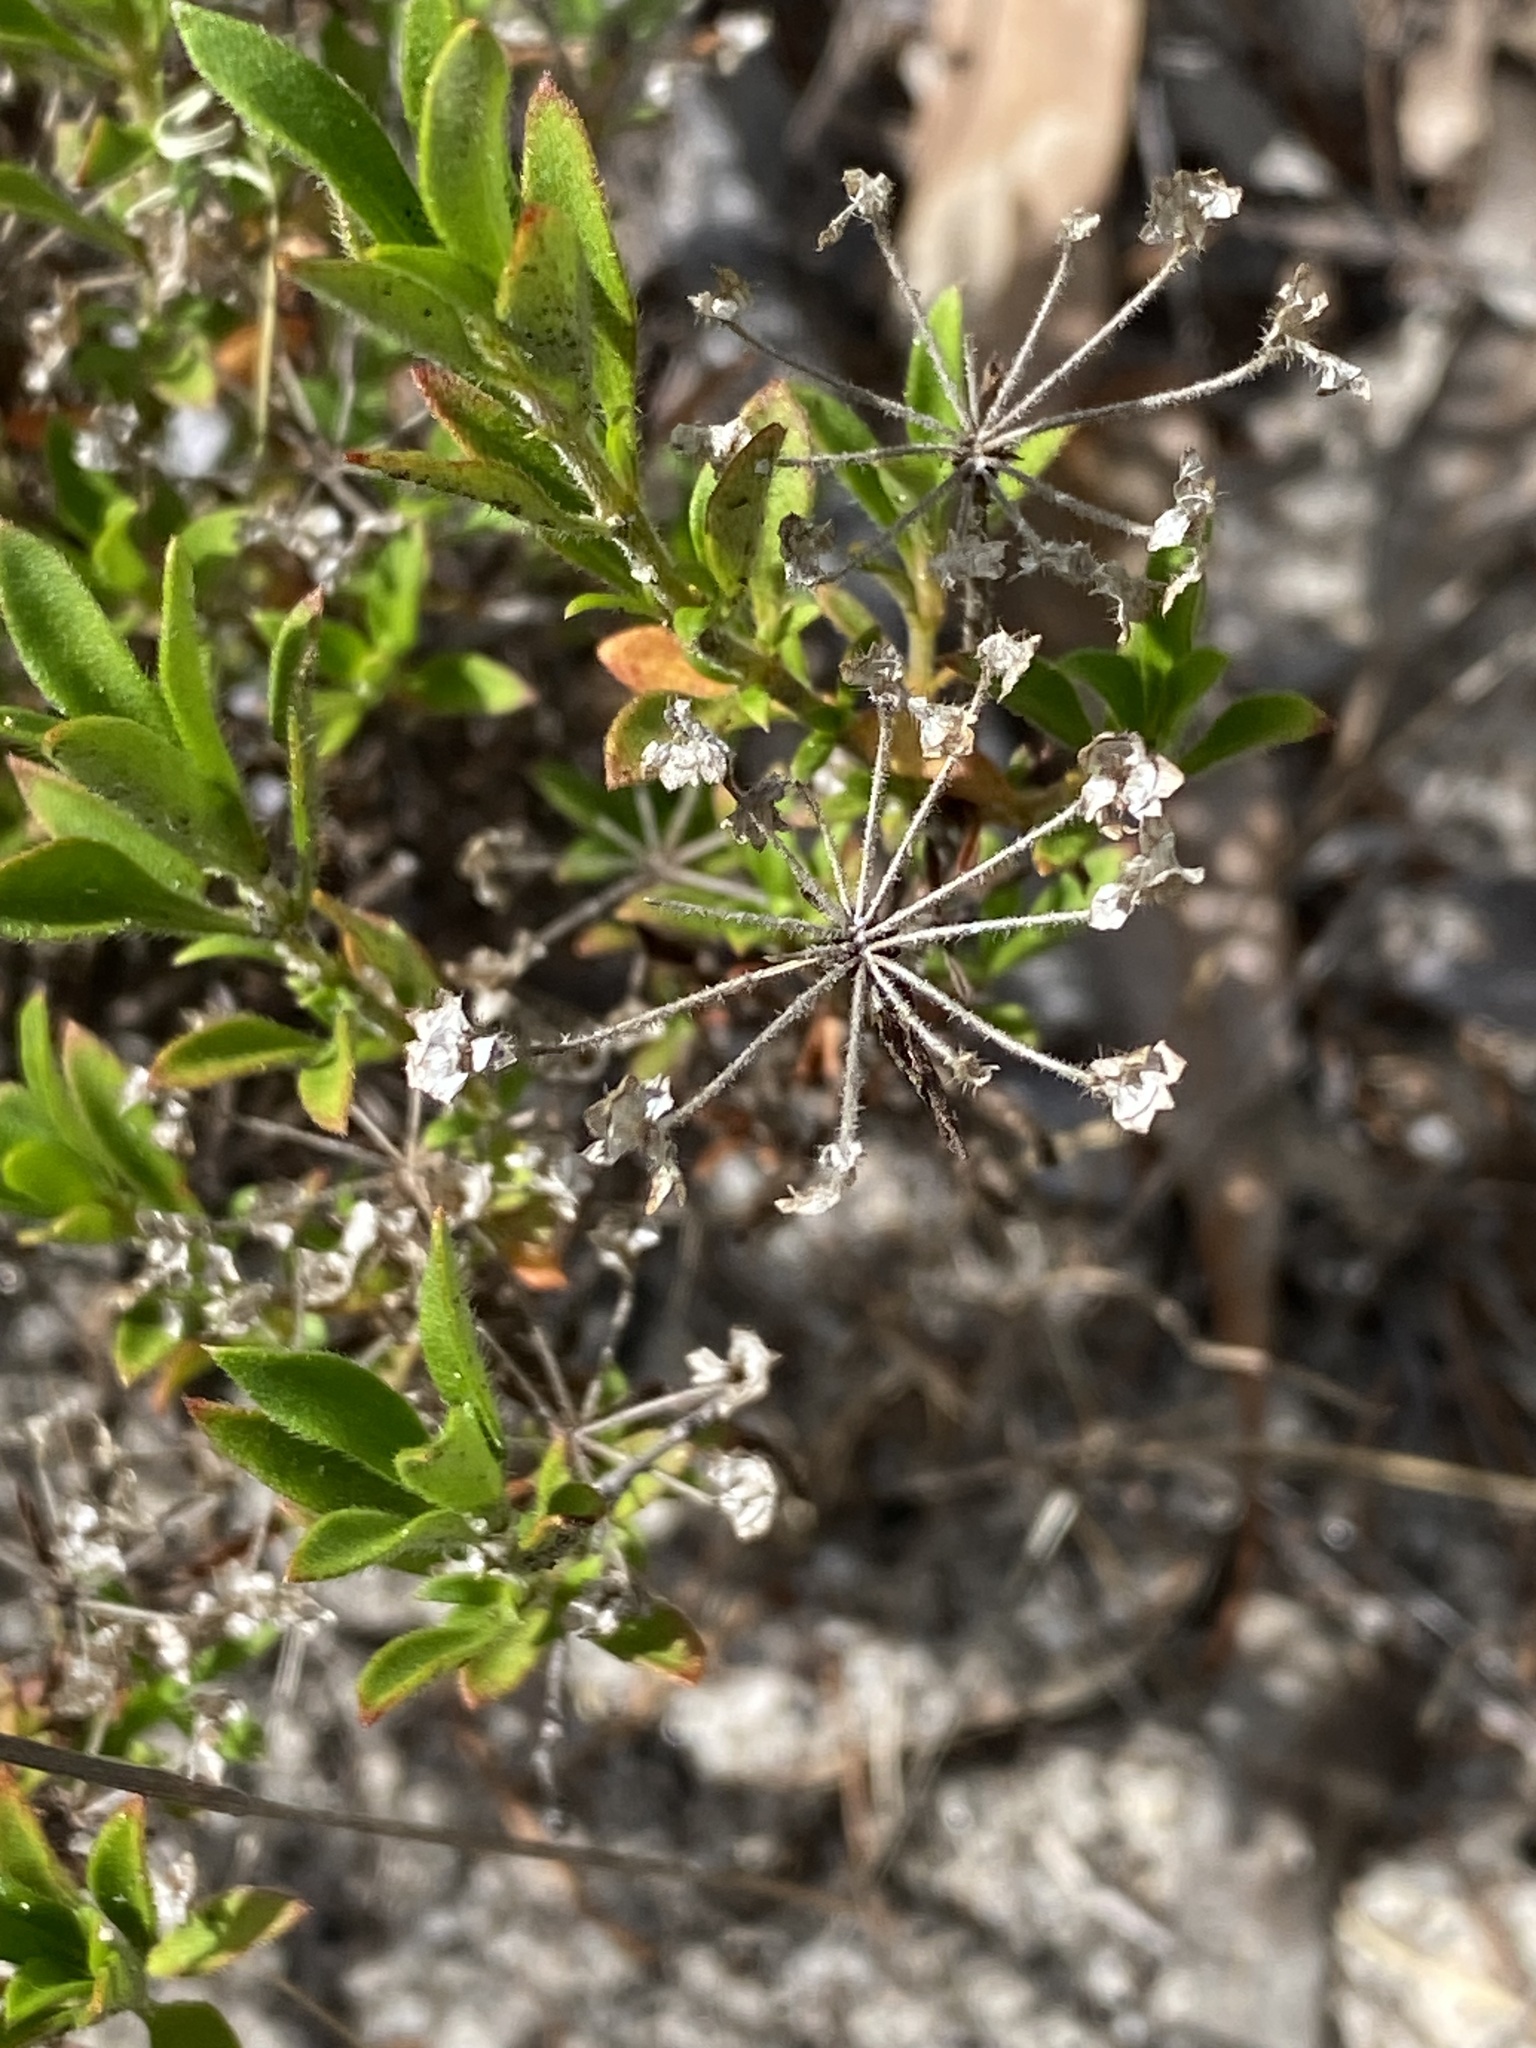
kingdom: Plantae
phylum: Tracheophyta
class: Magnoliopsida
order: Gentianales
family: Rubiaceae
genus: Pomax
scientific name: Pomax umbellata
